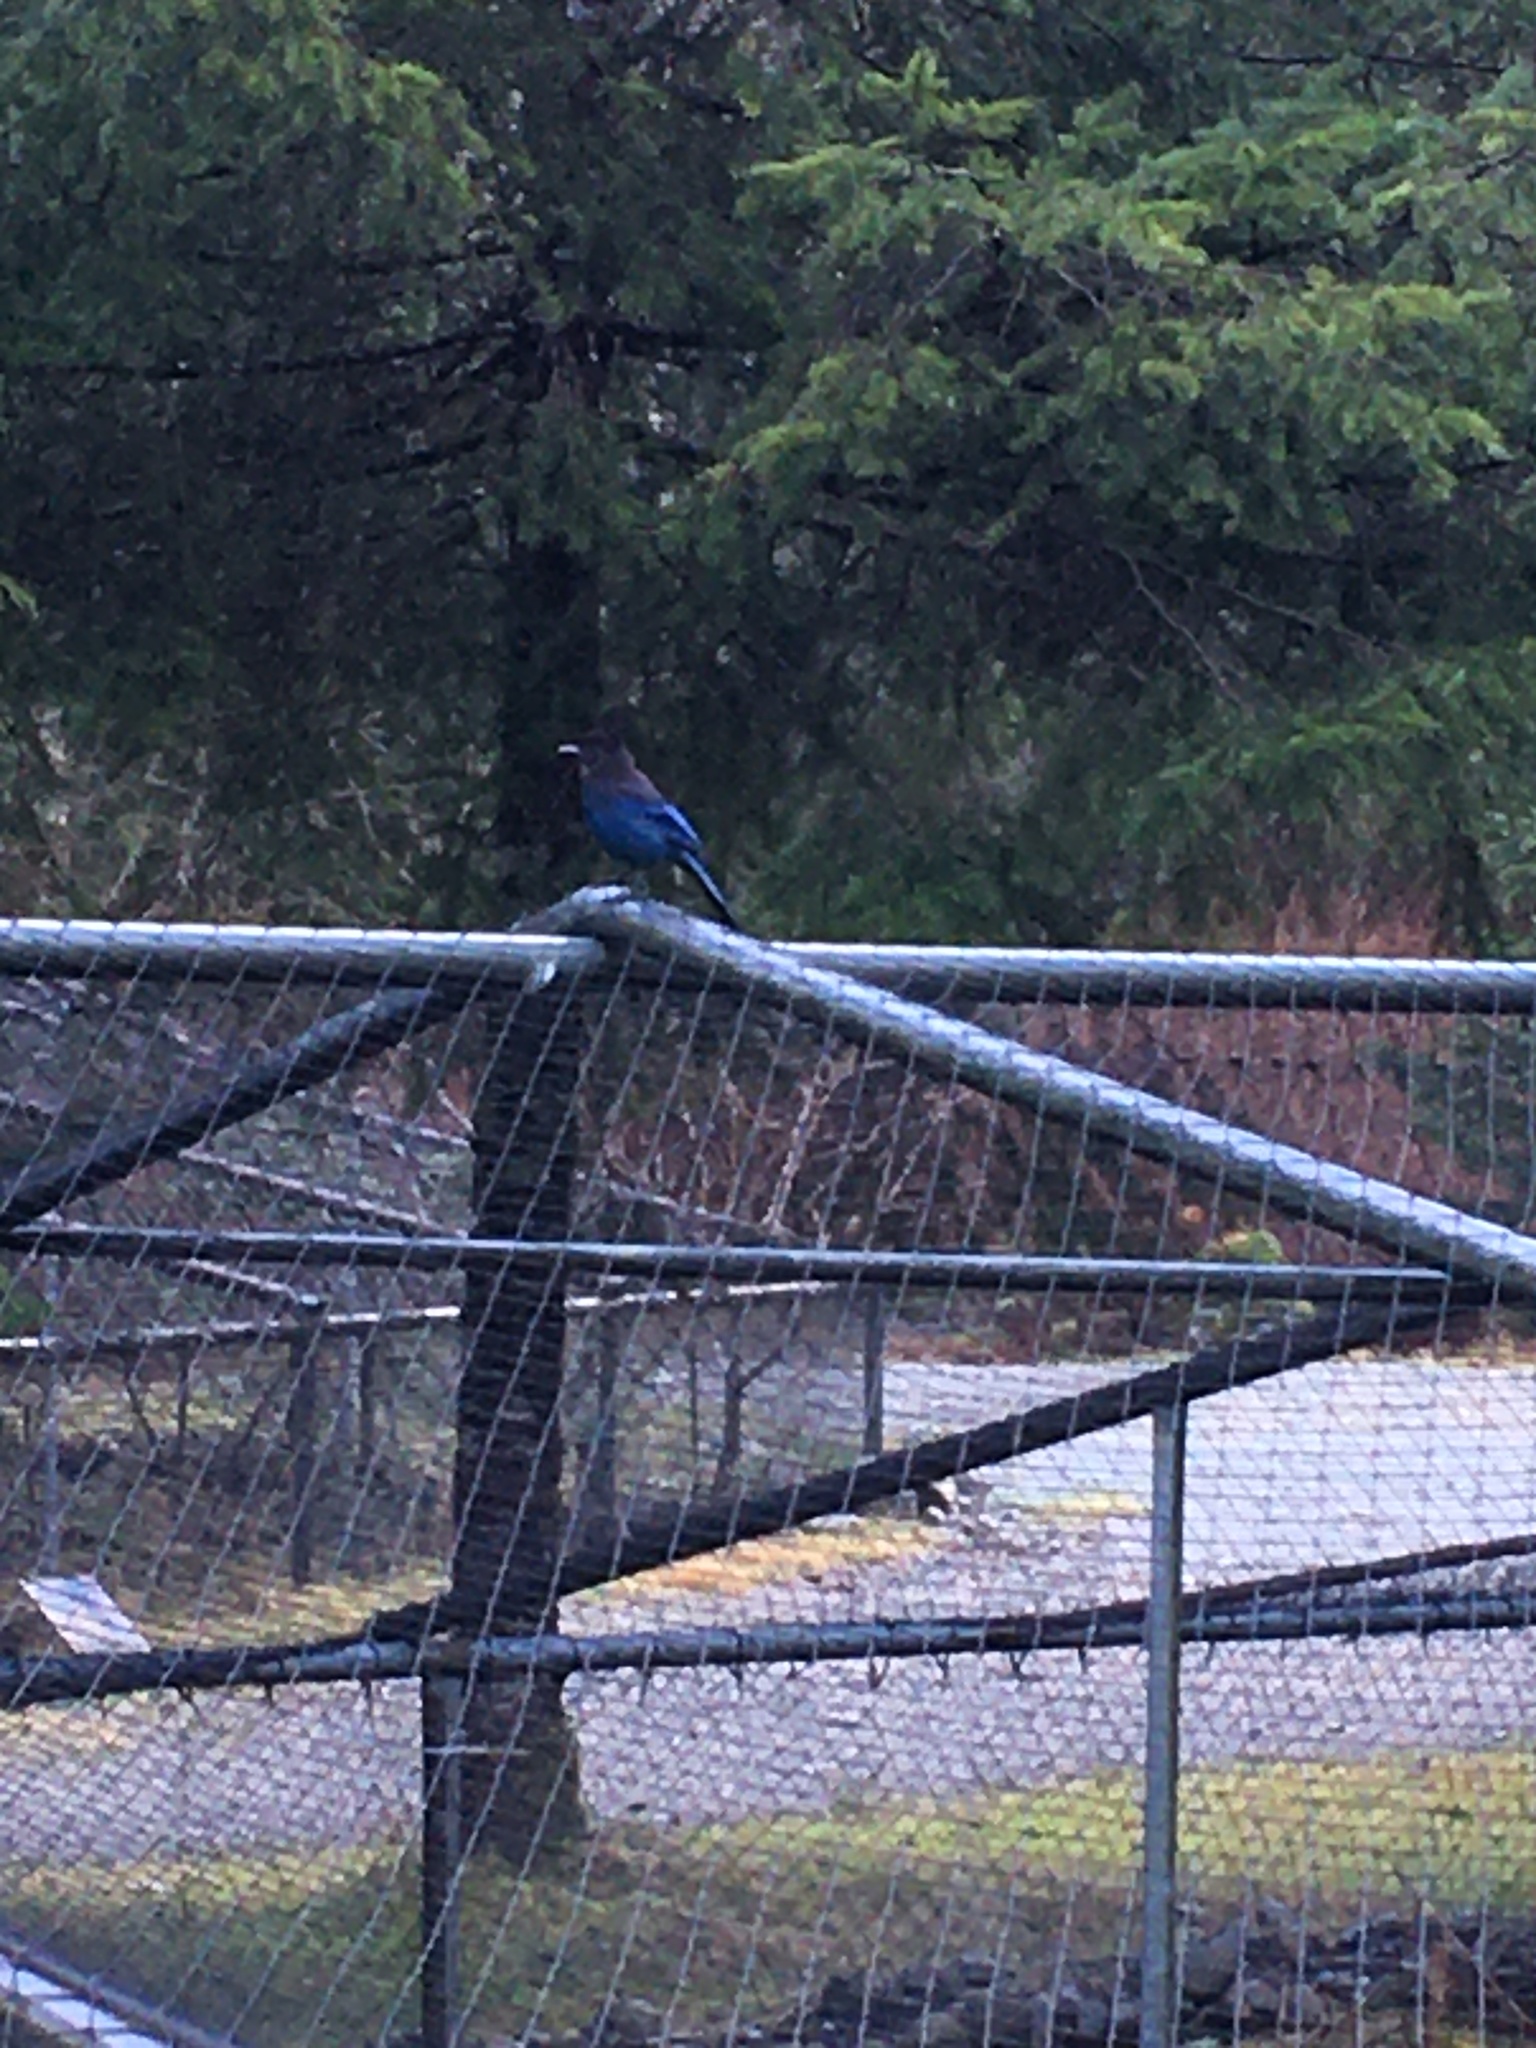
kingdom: Animalia
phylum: Chordata
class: Aves
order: Passeriformes
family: Corvidae
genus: Cyanocitta
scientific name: Cyanocitta stelleri
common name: Steller's jay
